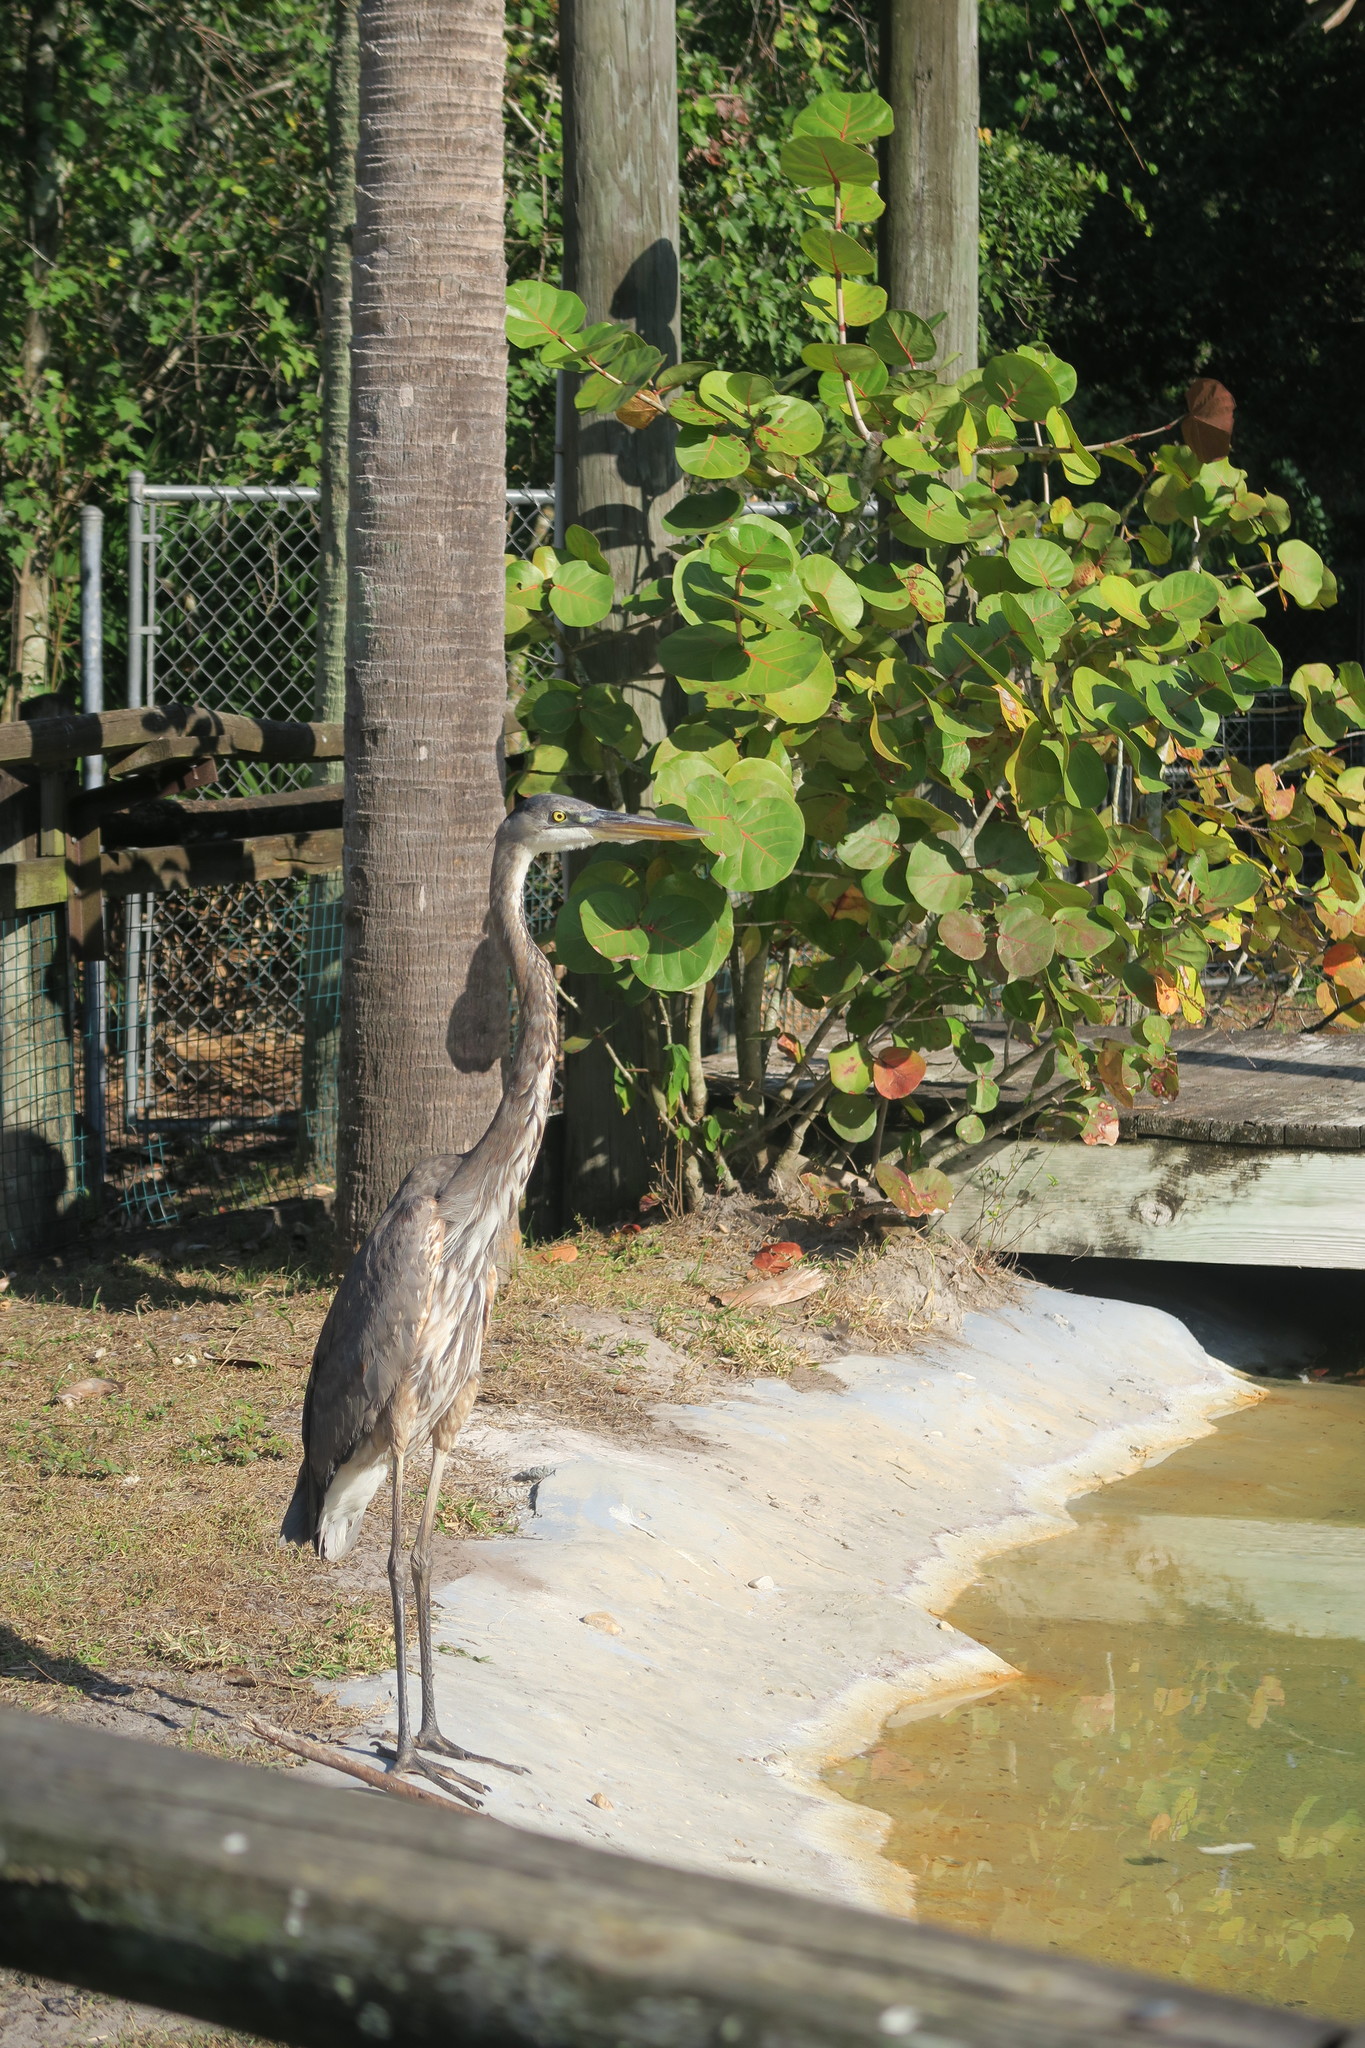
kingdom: Animalia
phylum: Chordata
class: Aves
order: Pelecaniformes
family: Ardeidae
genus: Ardea
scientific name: Ardea herodias
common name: Great blue heron
